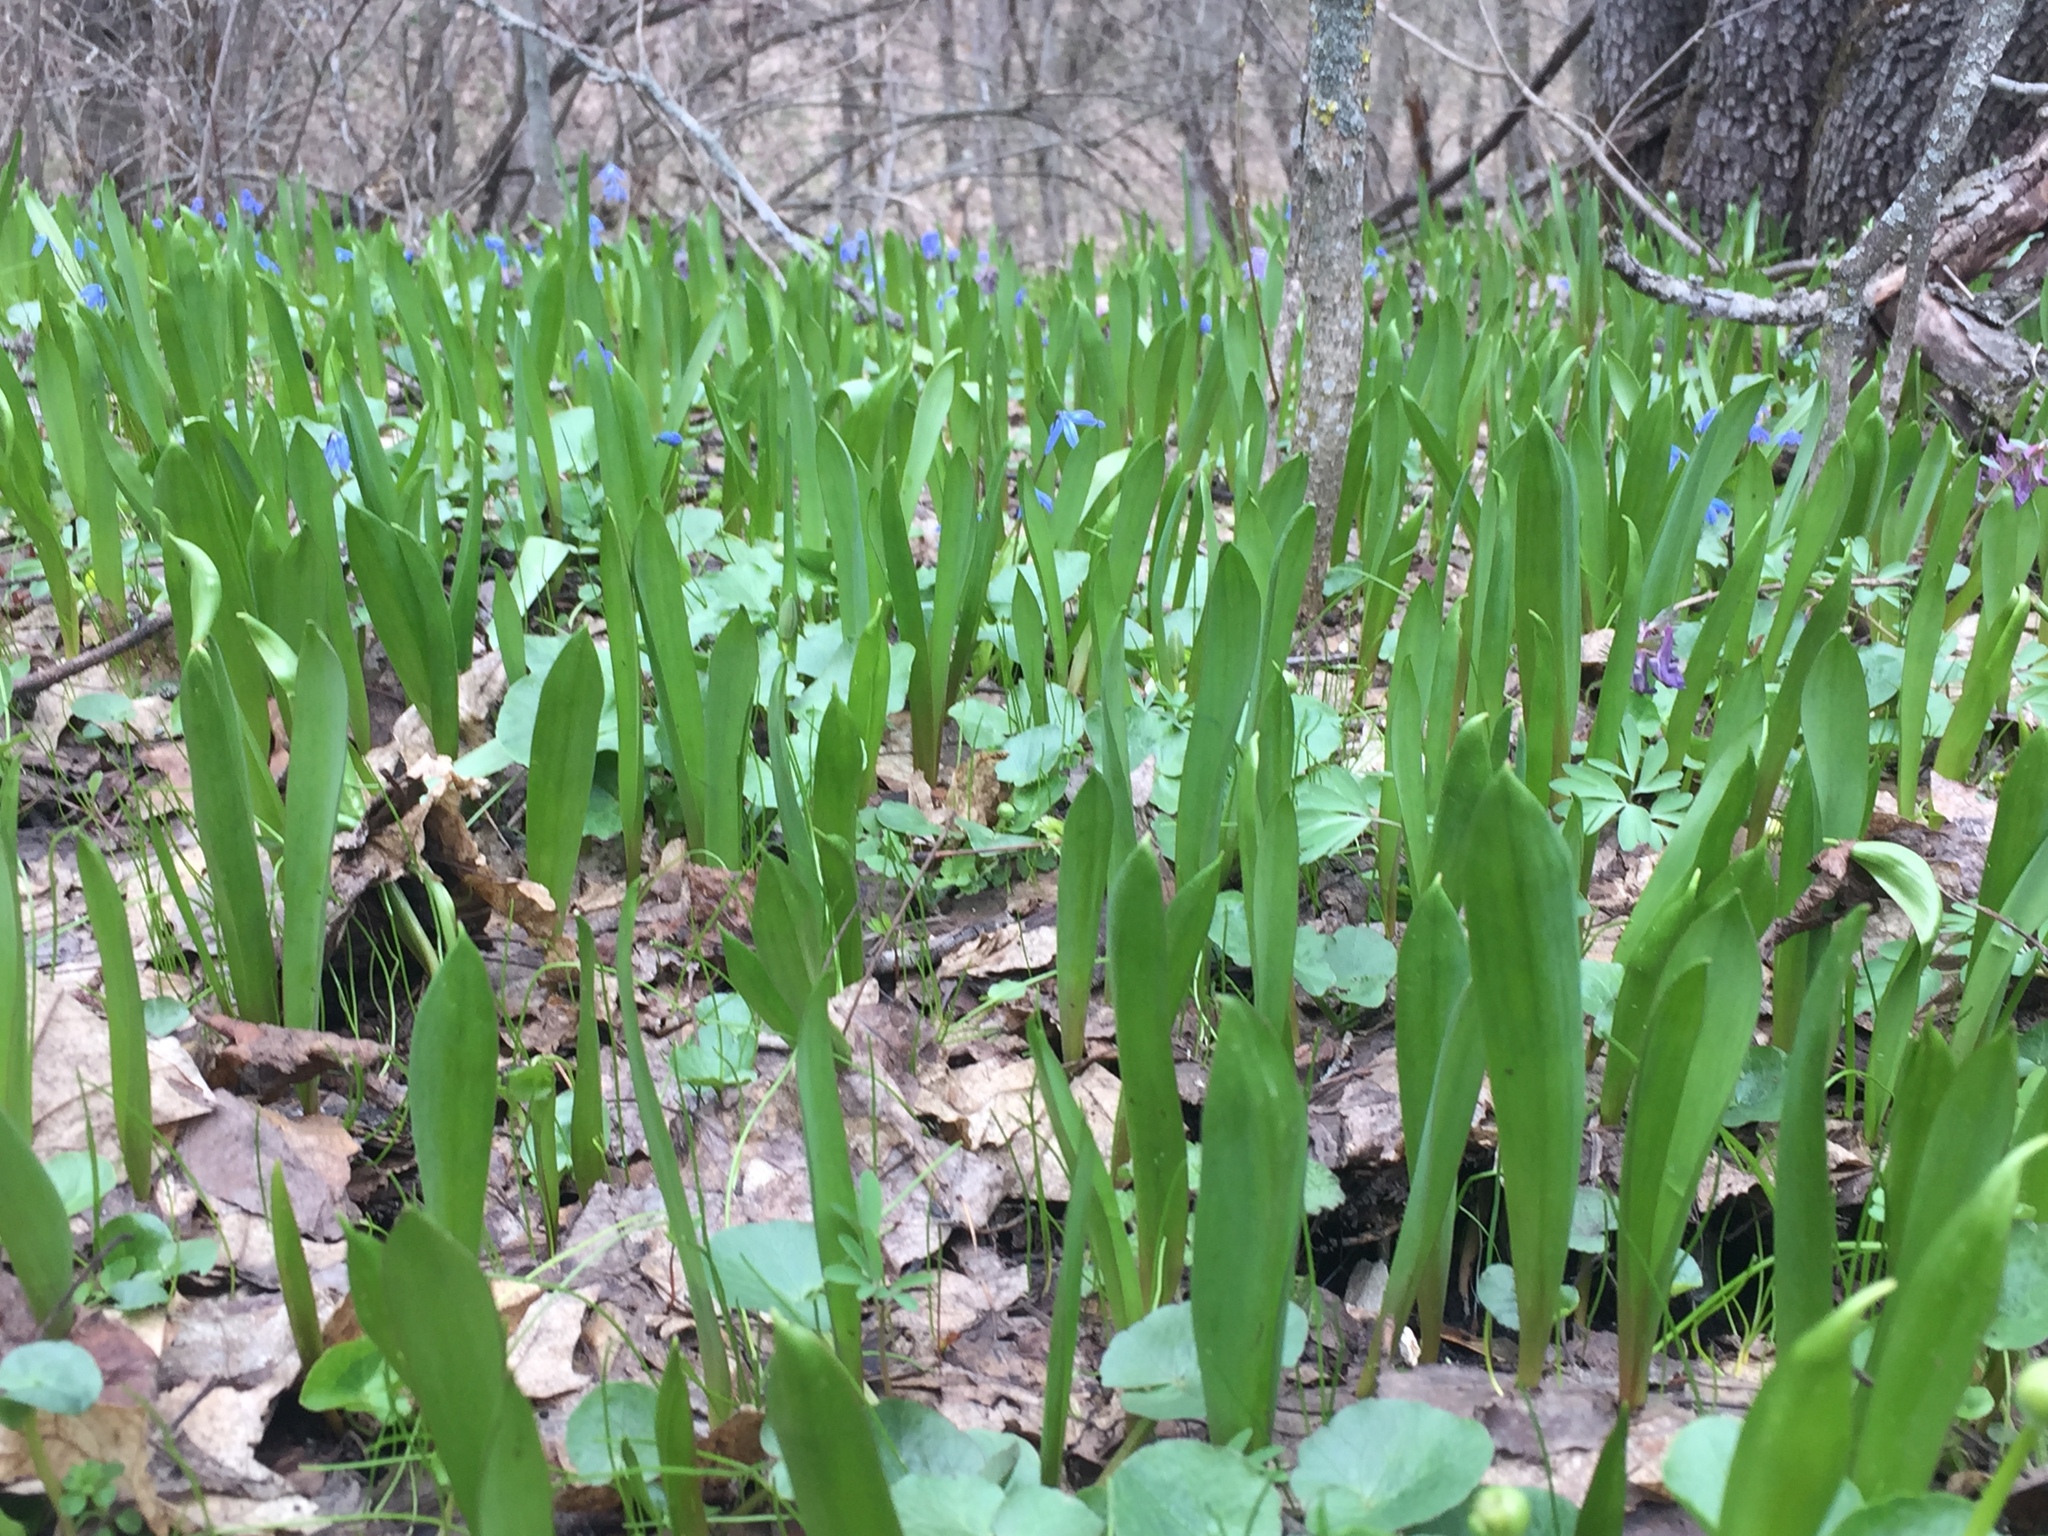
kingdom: Plantae
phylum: Tracheophyta
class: Liliopsida
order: Liliales
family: Liliaceae
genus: Tulipa
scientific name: Tulipa sylvestris
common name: Wild tulip
